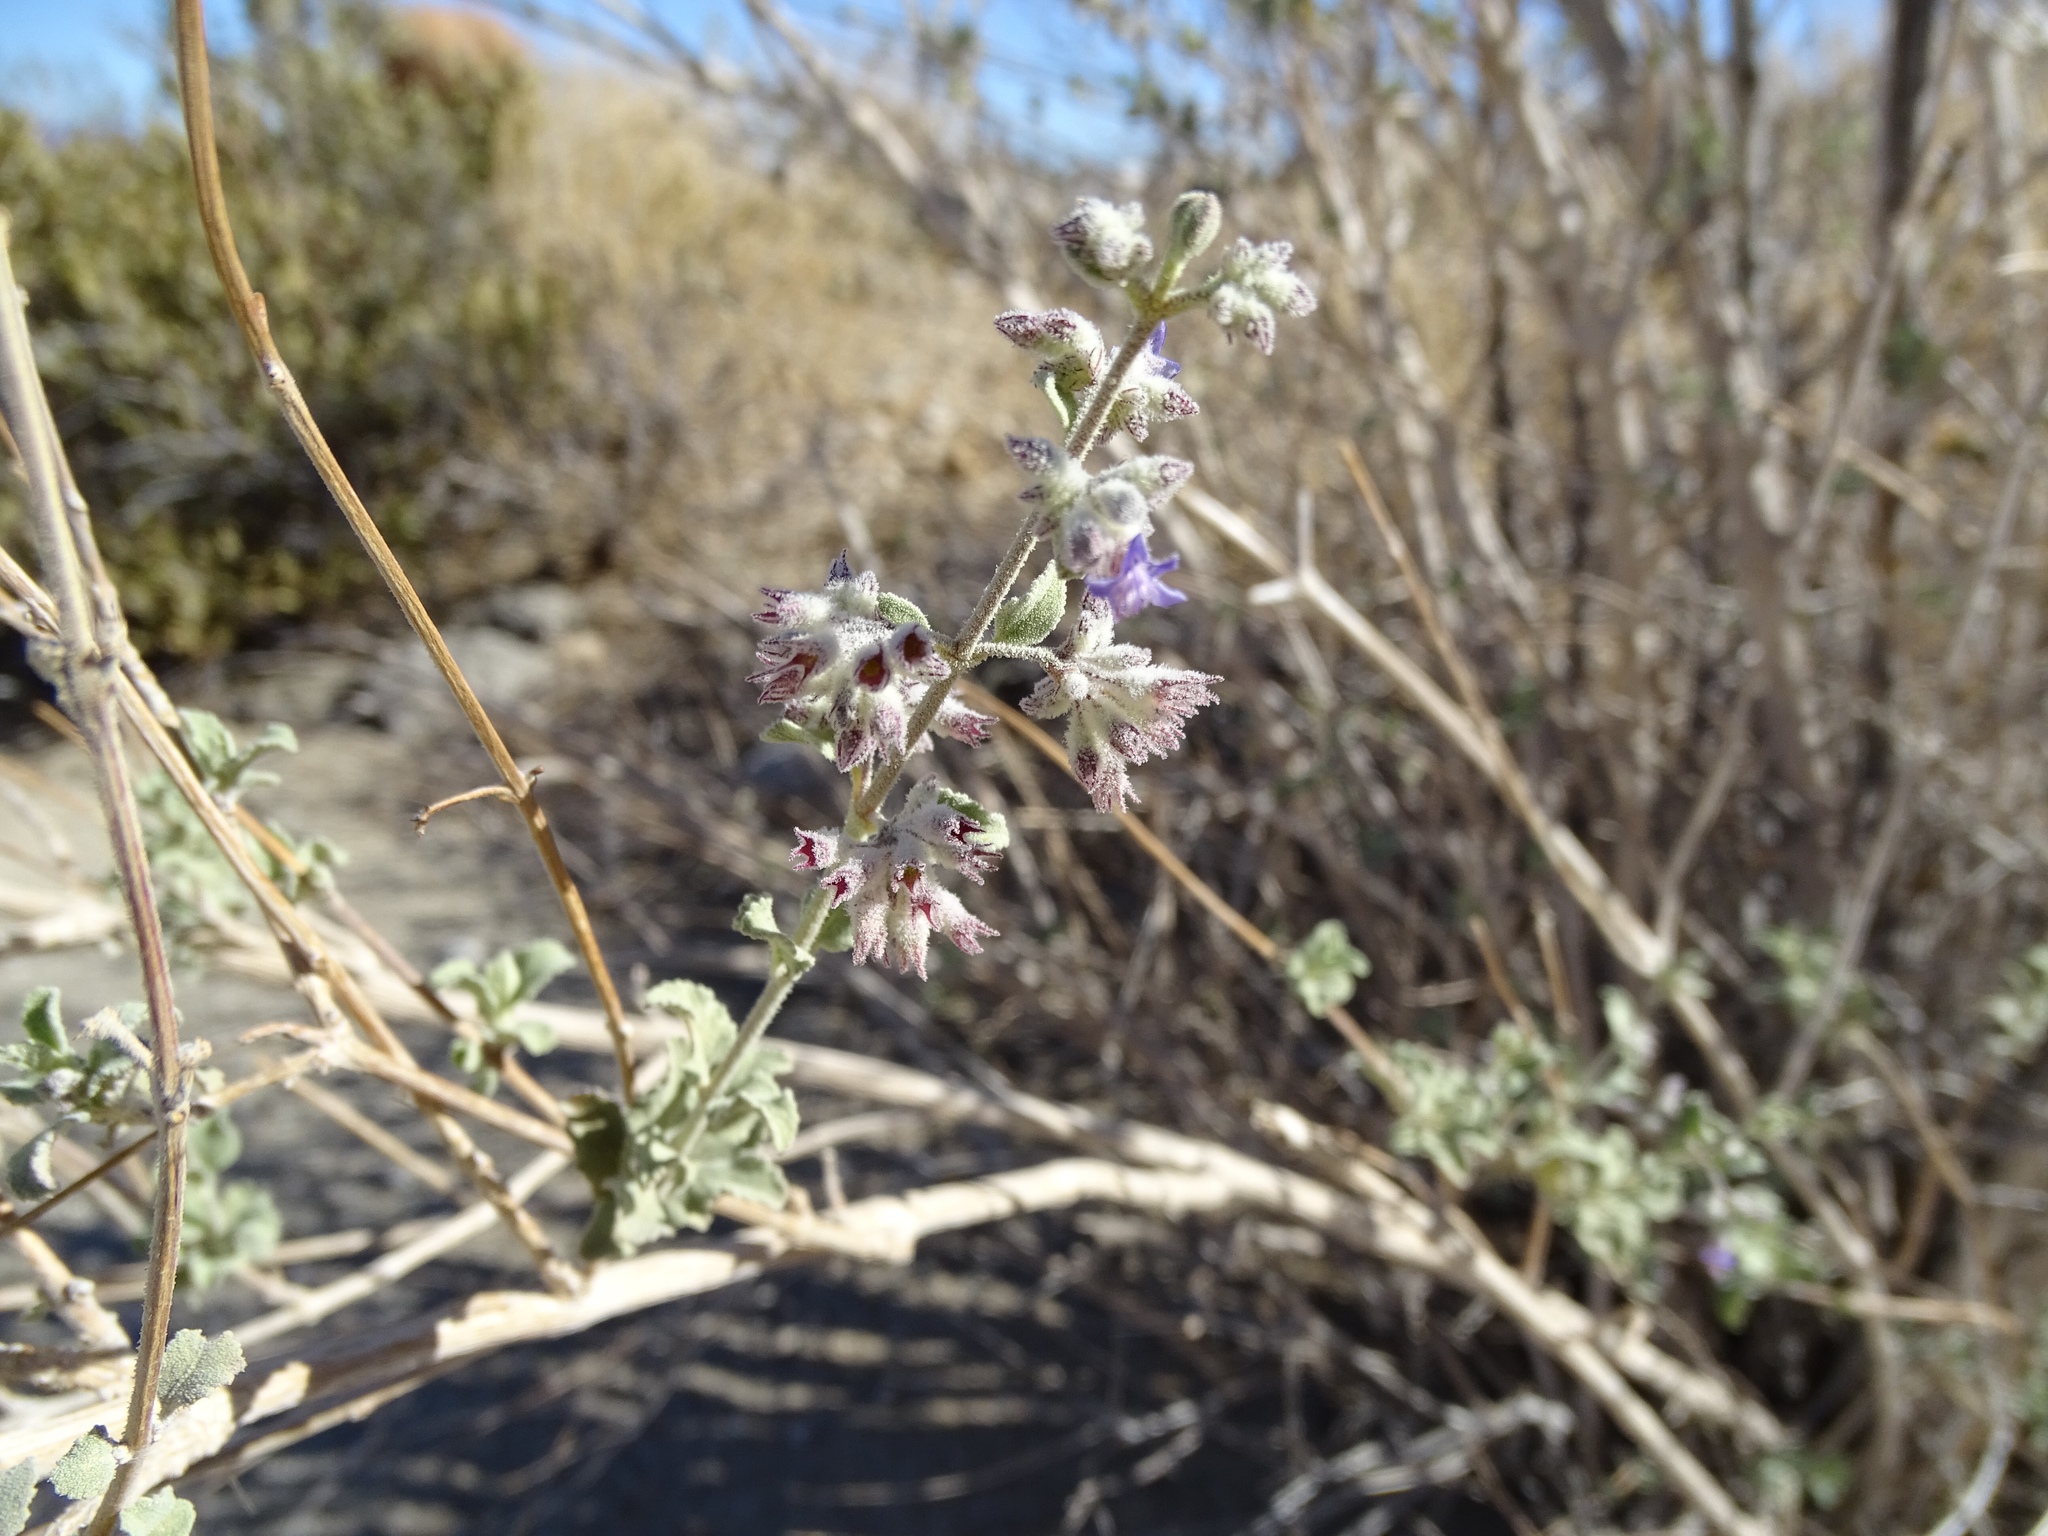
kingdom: Plantae
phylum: Tracheophyta
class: Magnoliopsida
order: Lamiales
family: Lamiaceae
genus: Condea
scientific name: Condea emoryi
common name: Chia
